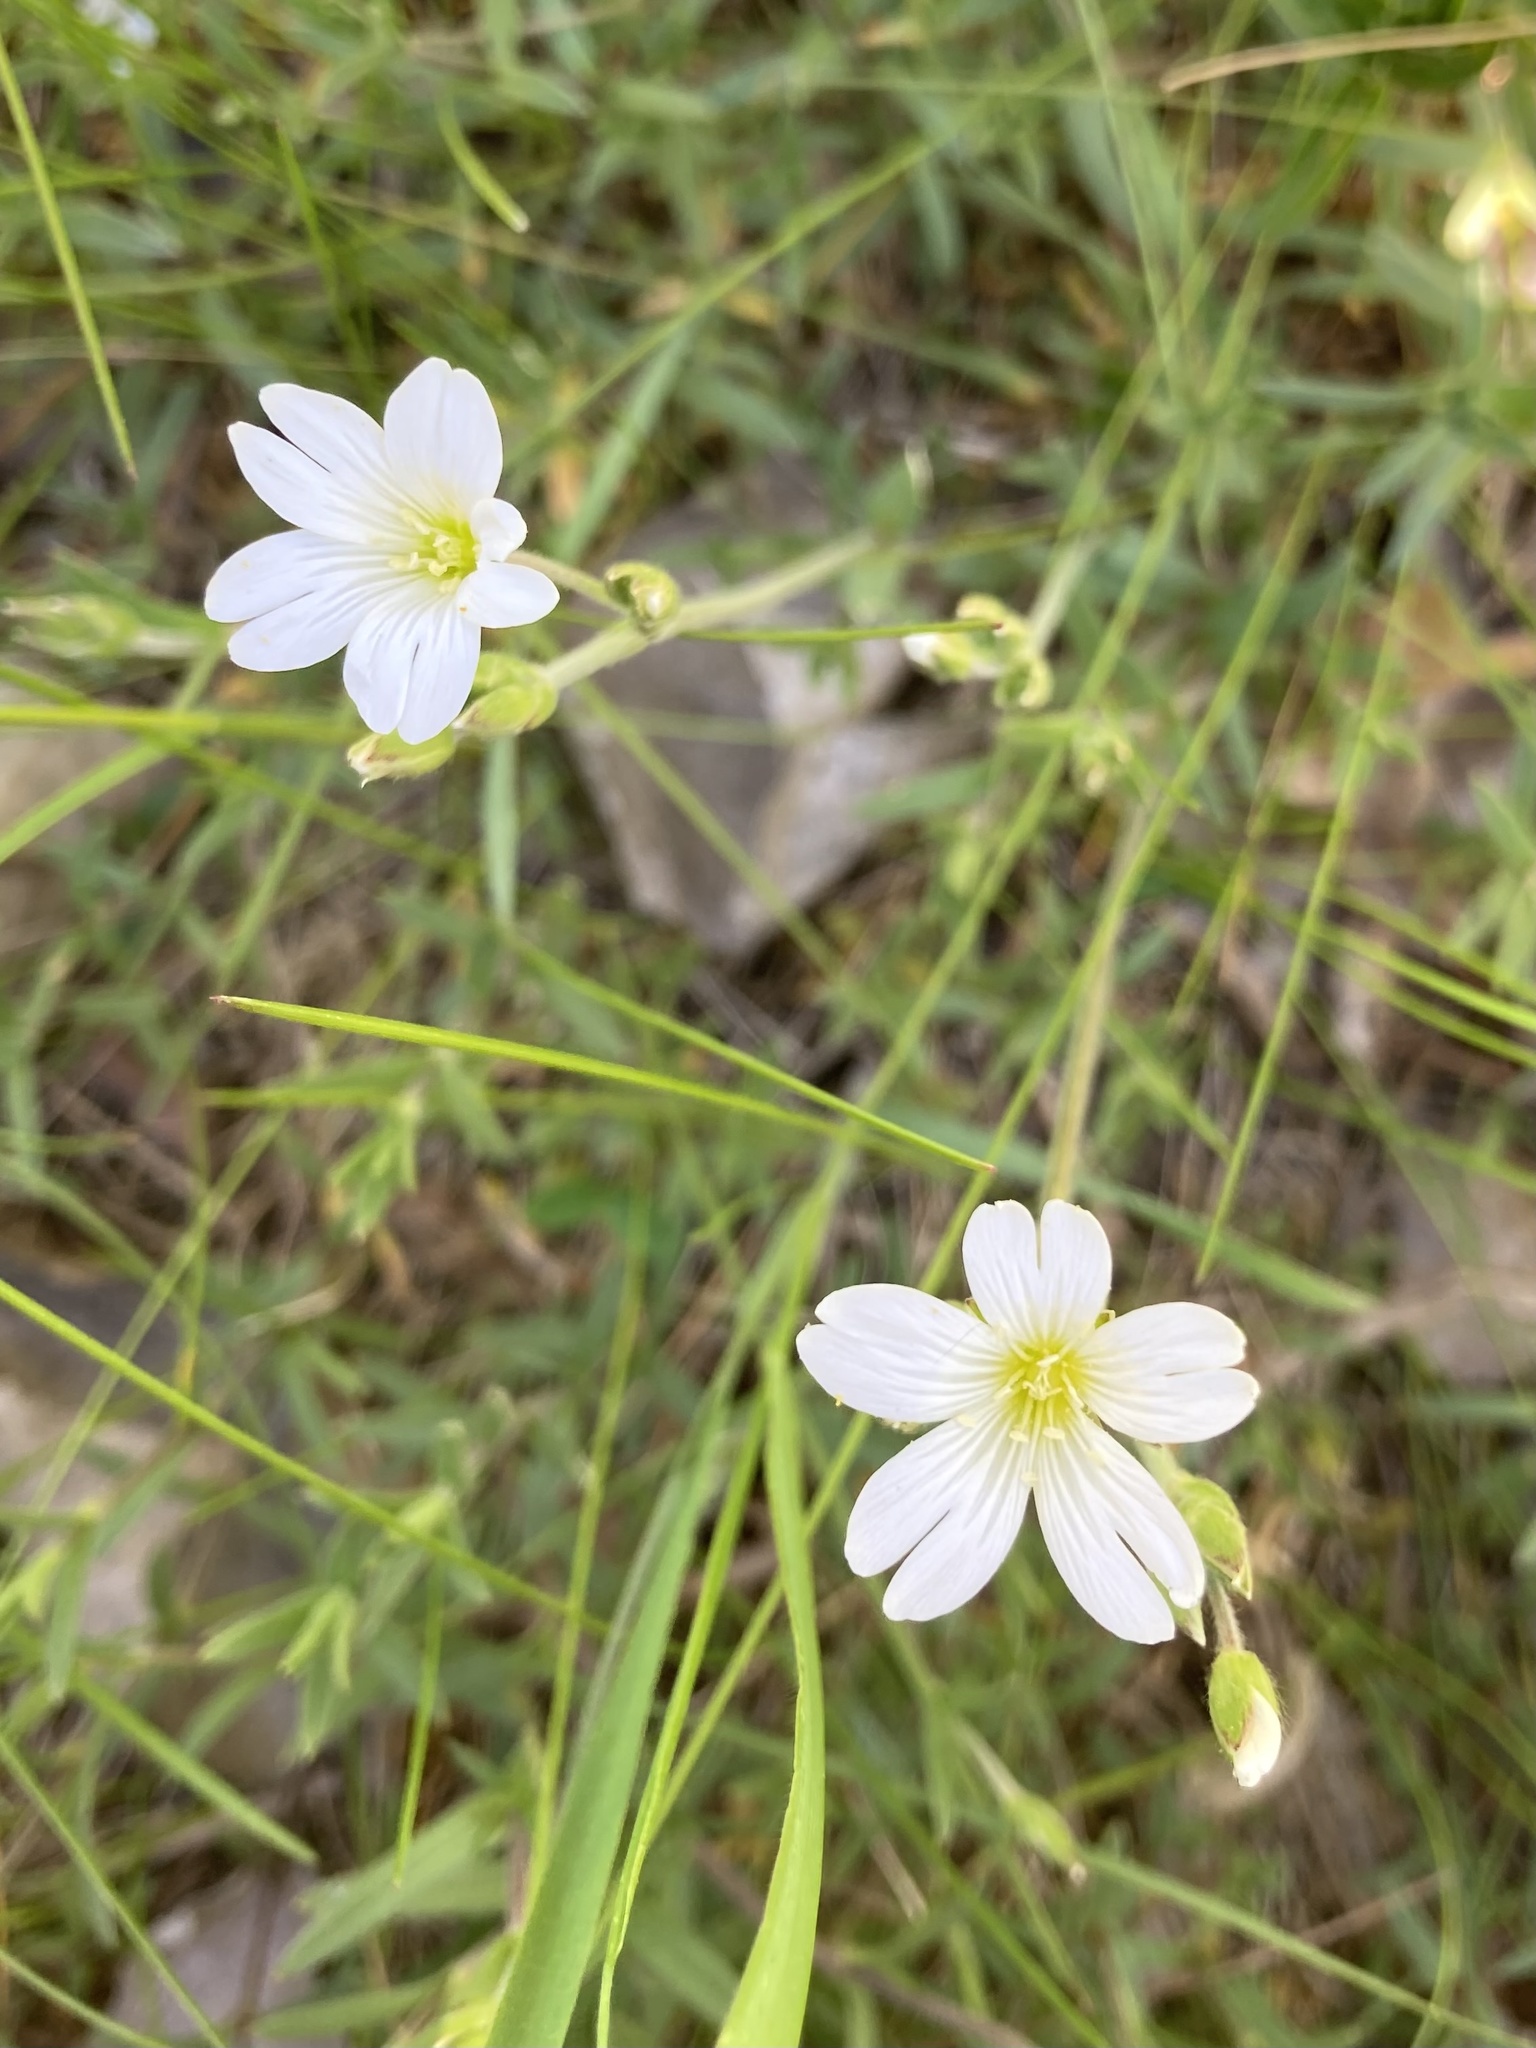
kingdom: Plantae
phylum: Tracheophyta
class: Magnoliopsida
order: Caryophyllales
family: Caryophyllaceae
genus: Cerastium
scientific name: Cerastium arvense
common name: Field mouse-ear
